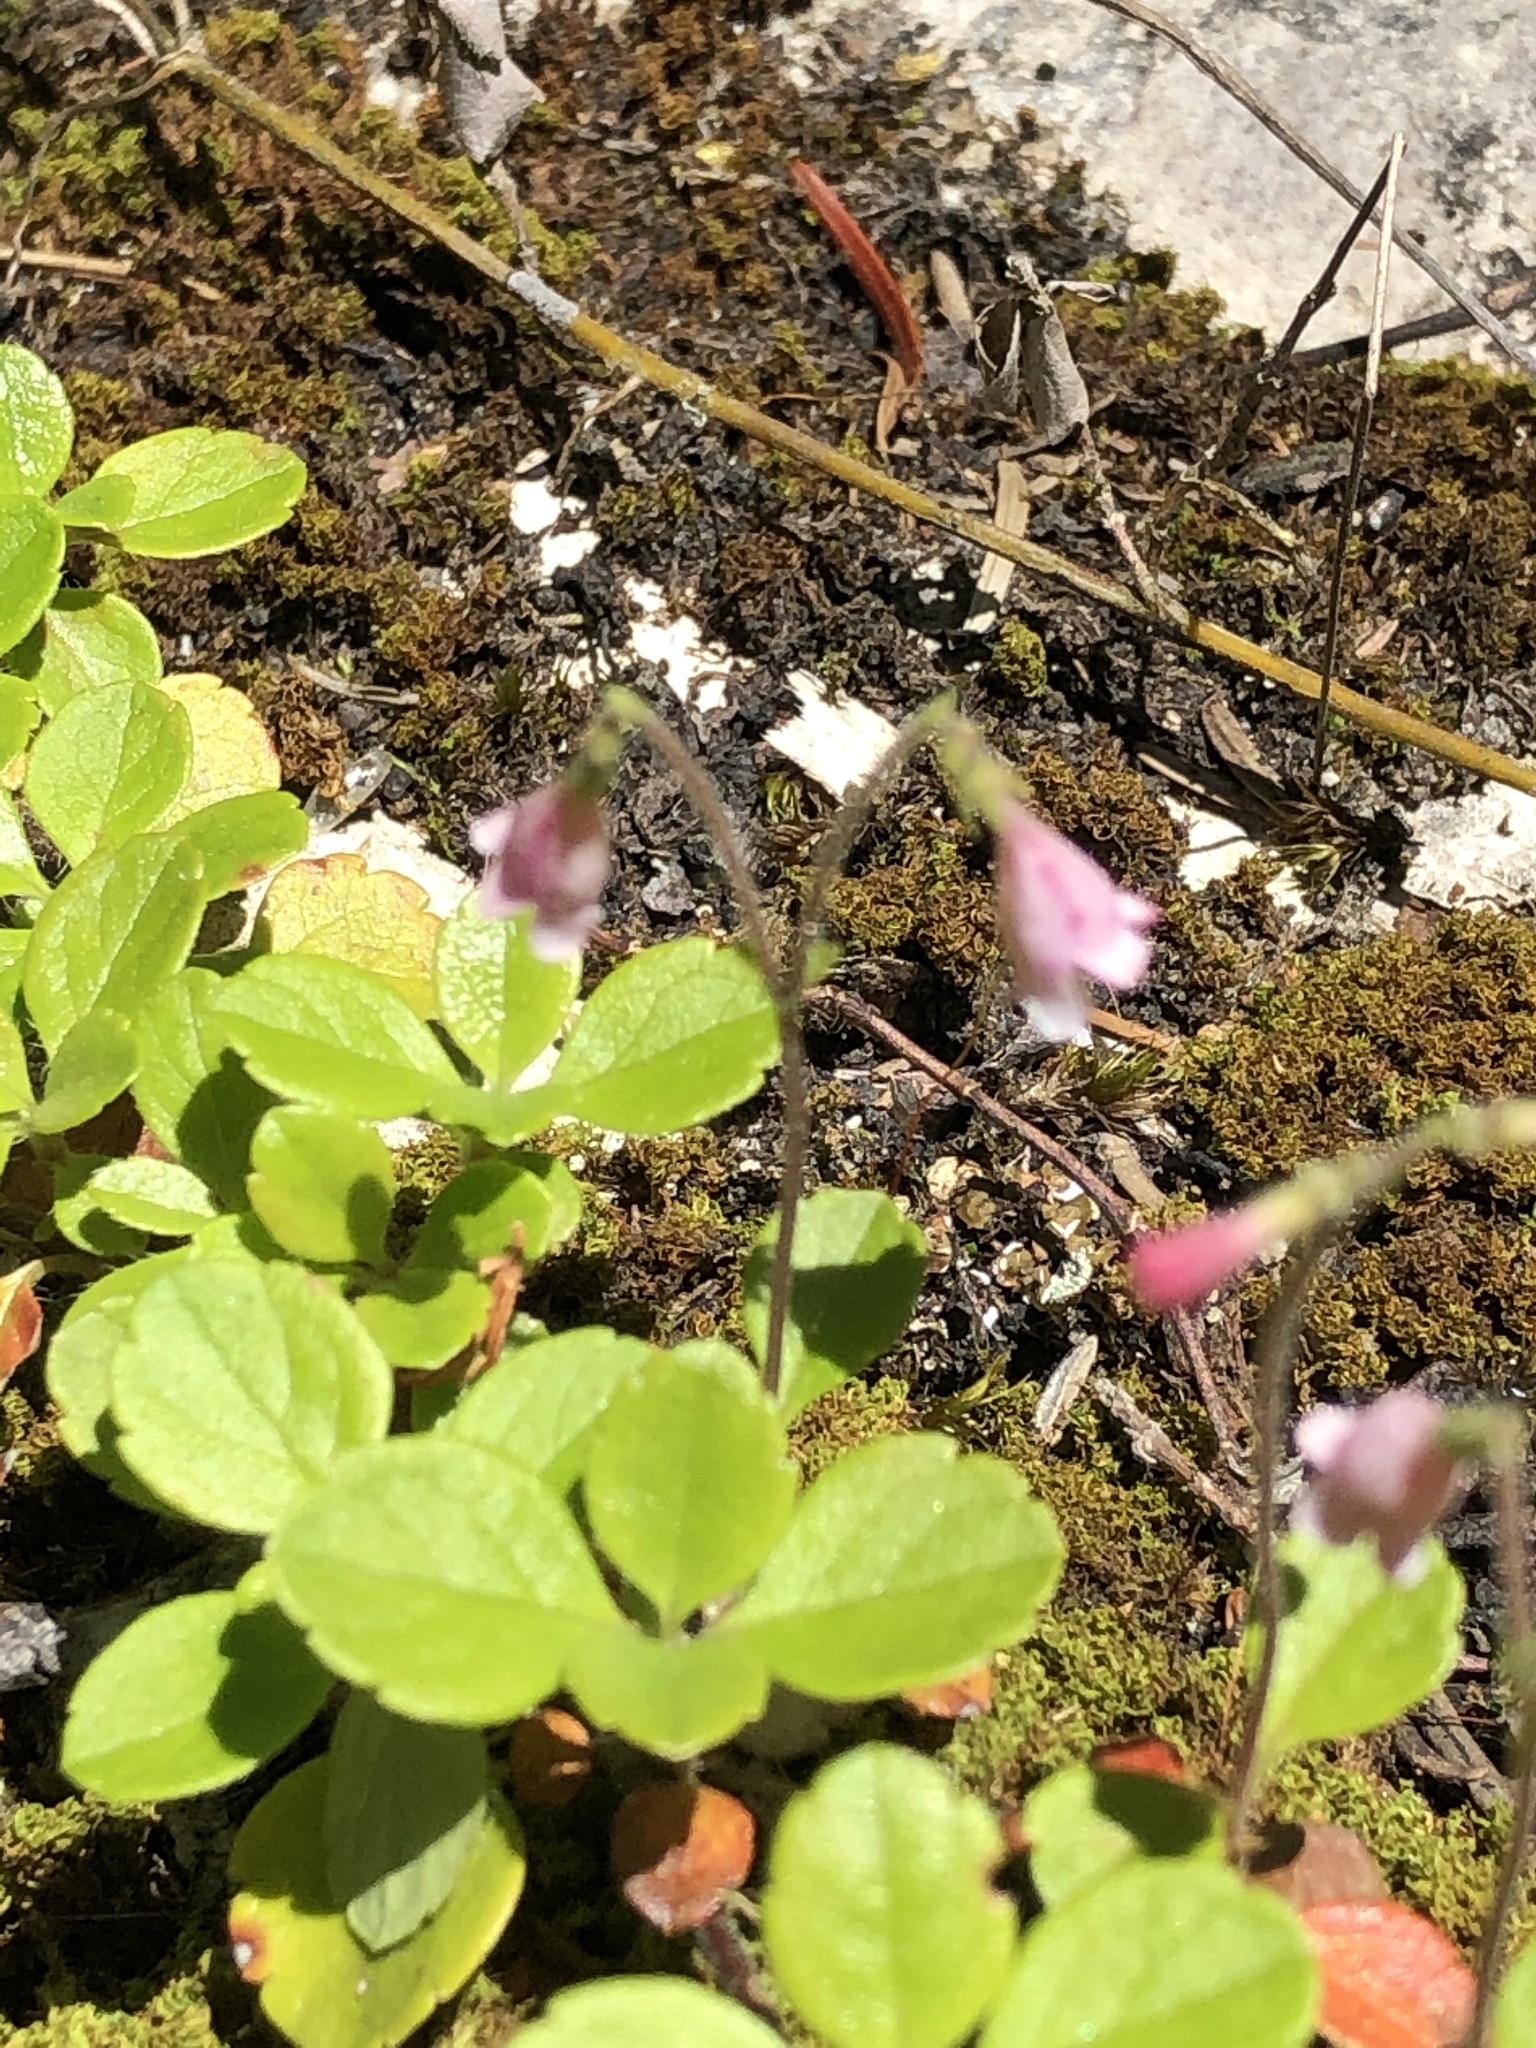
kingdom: Plantae
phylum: Tracheophyta
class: Magnoliopsida
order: Dipsacales
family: Caprifoliaceae
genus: Linnaea
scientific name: Linnaea borealis
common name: Twinflower
